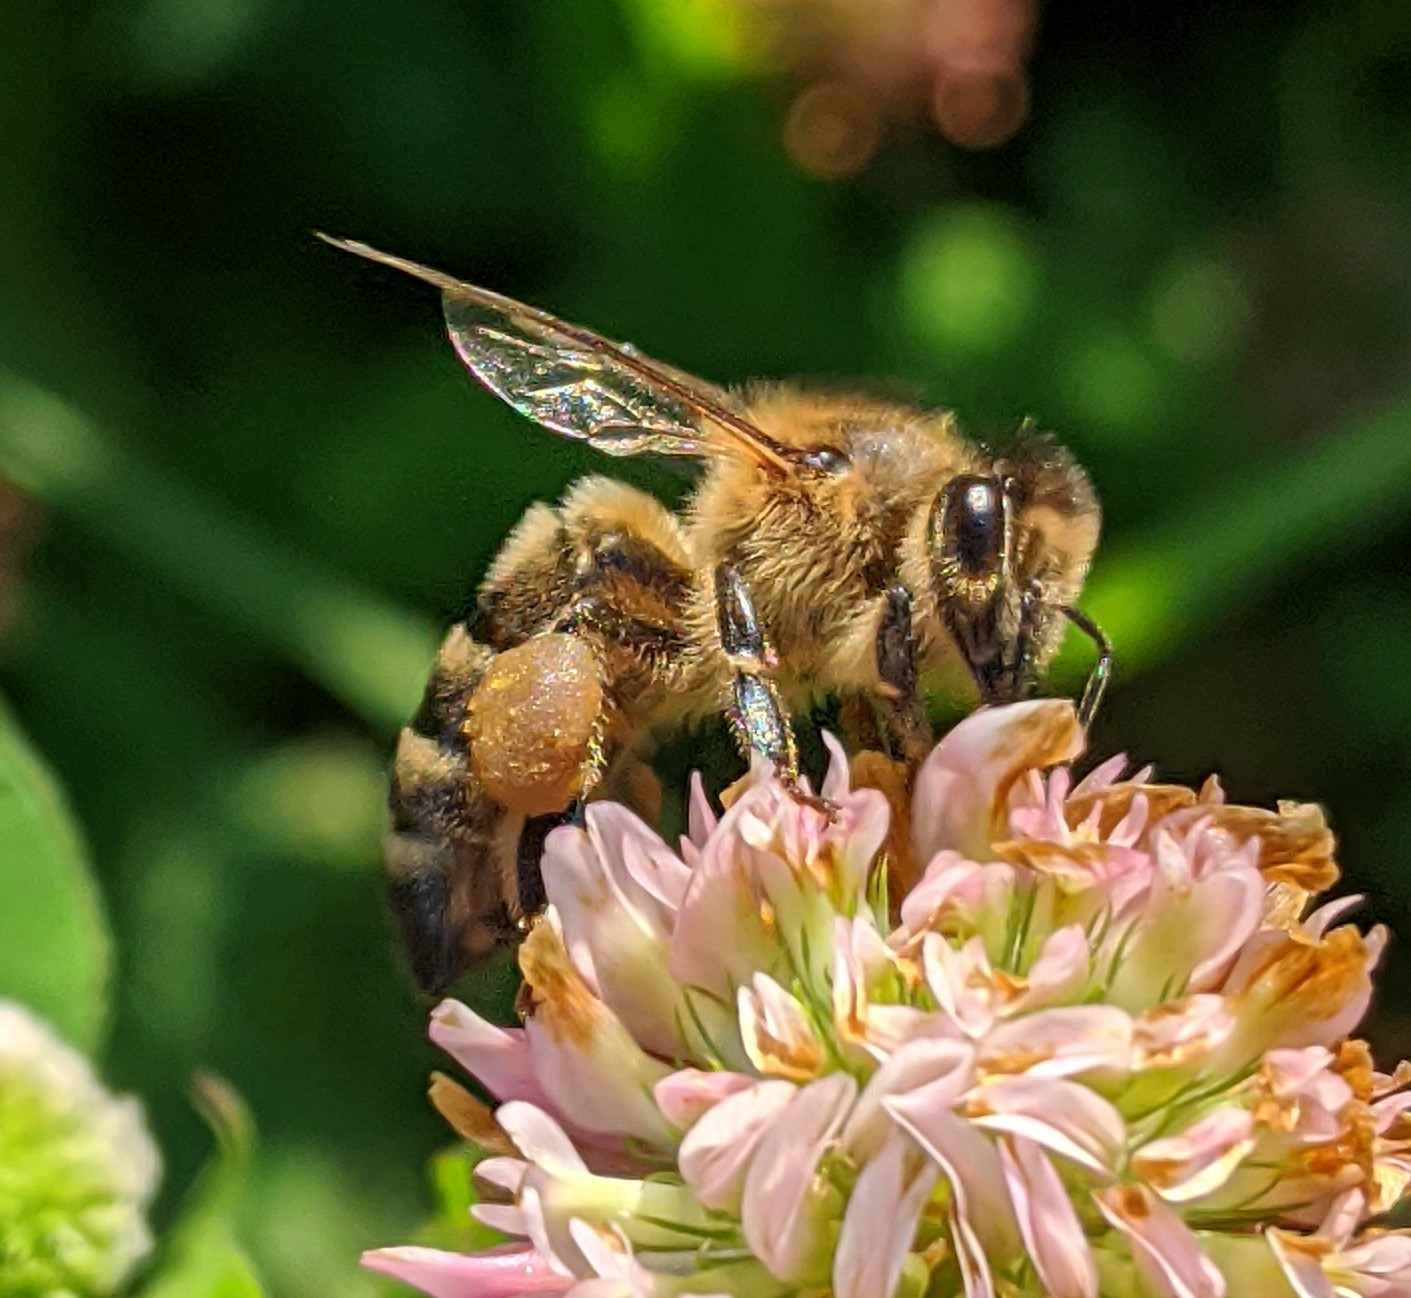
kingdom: Animalia
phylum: Arthropoda
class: Insecta
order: Hymenoptera
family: Apidae
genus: Apis
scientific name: Apis mellifera
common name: Honey bee
